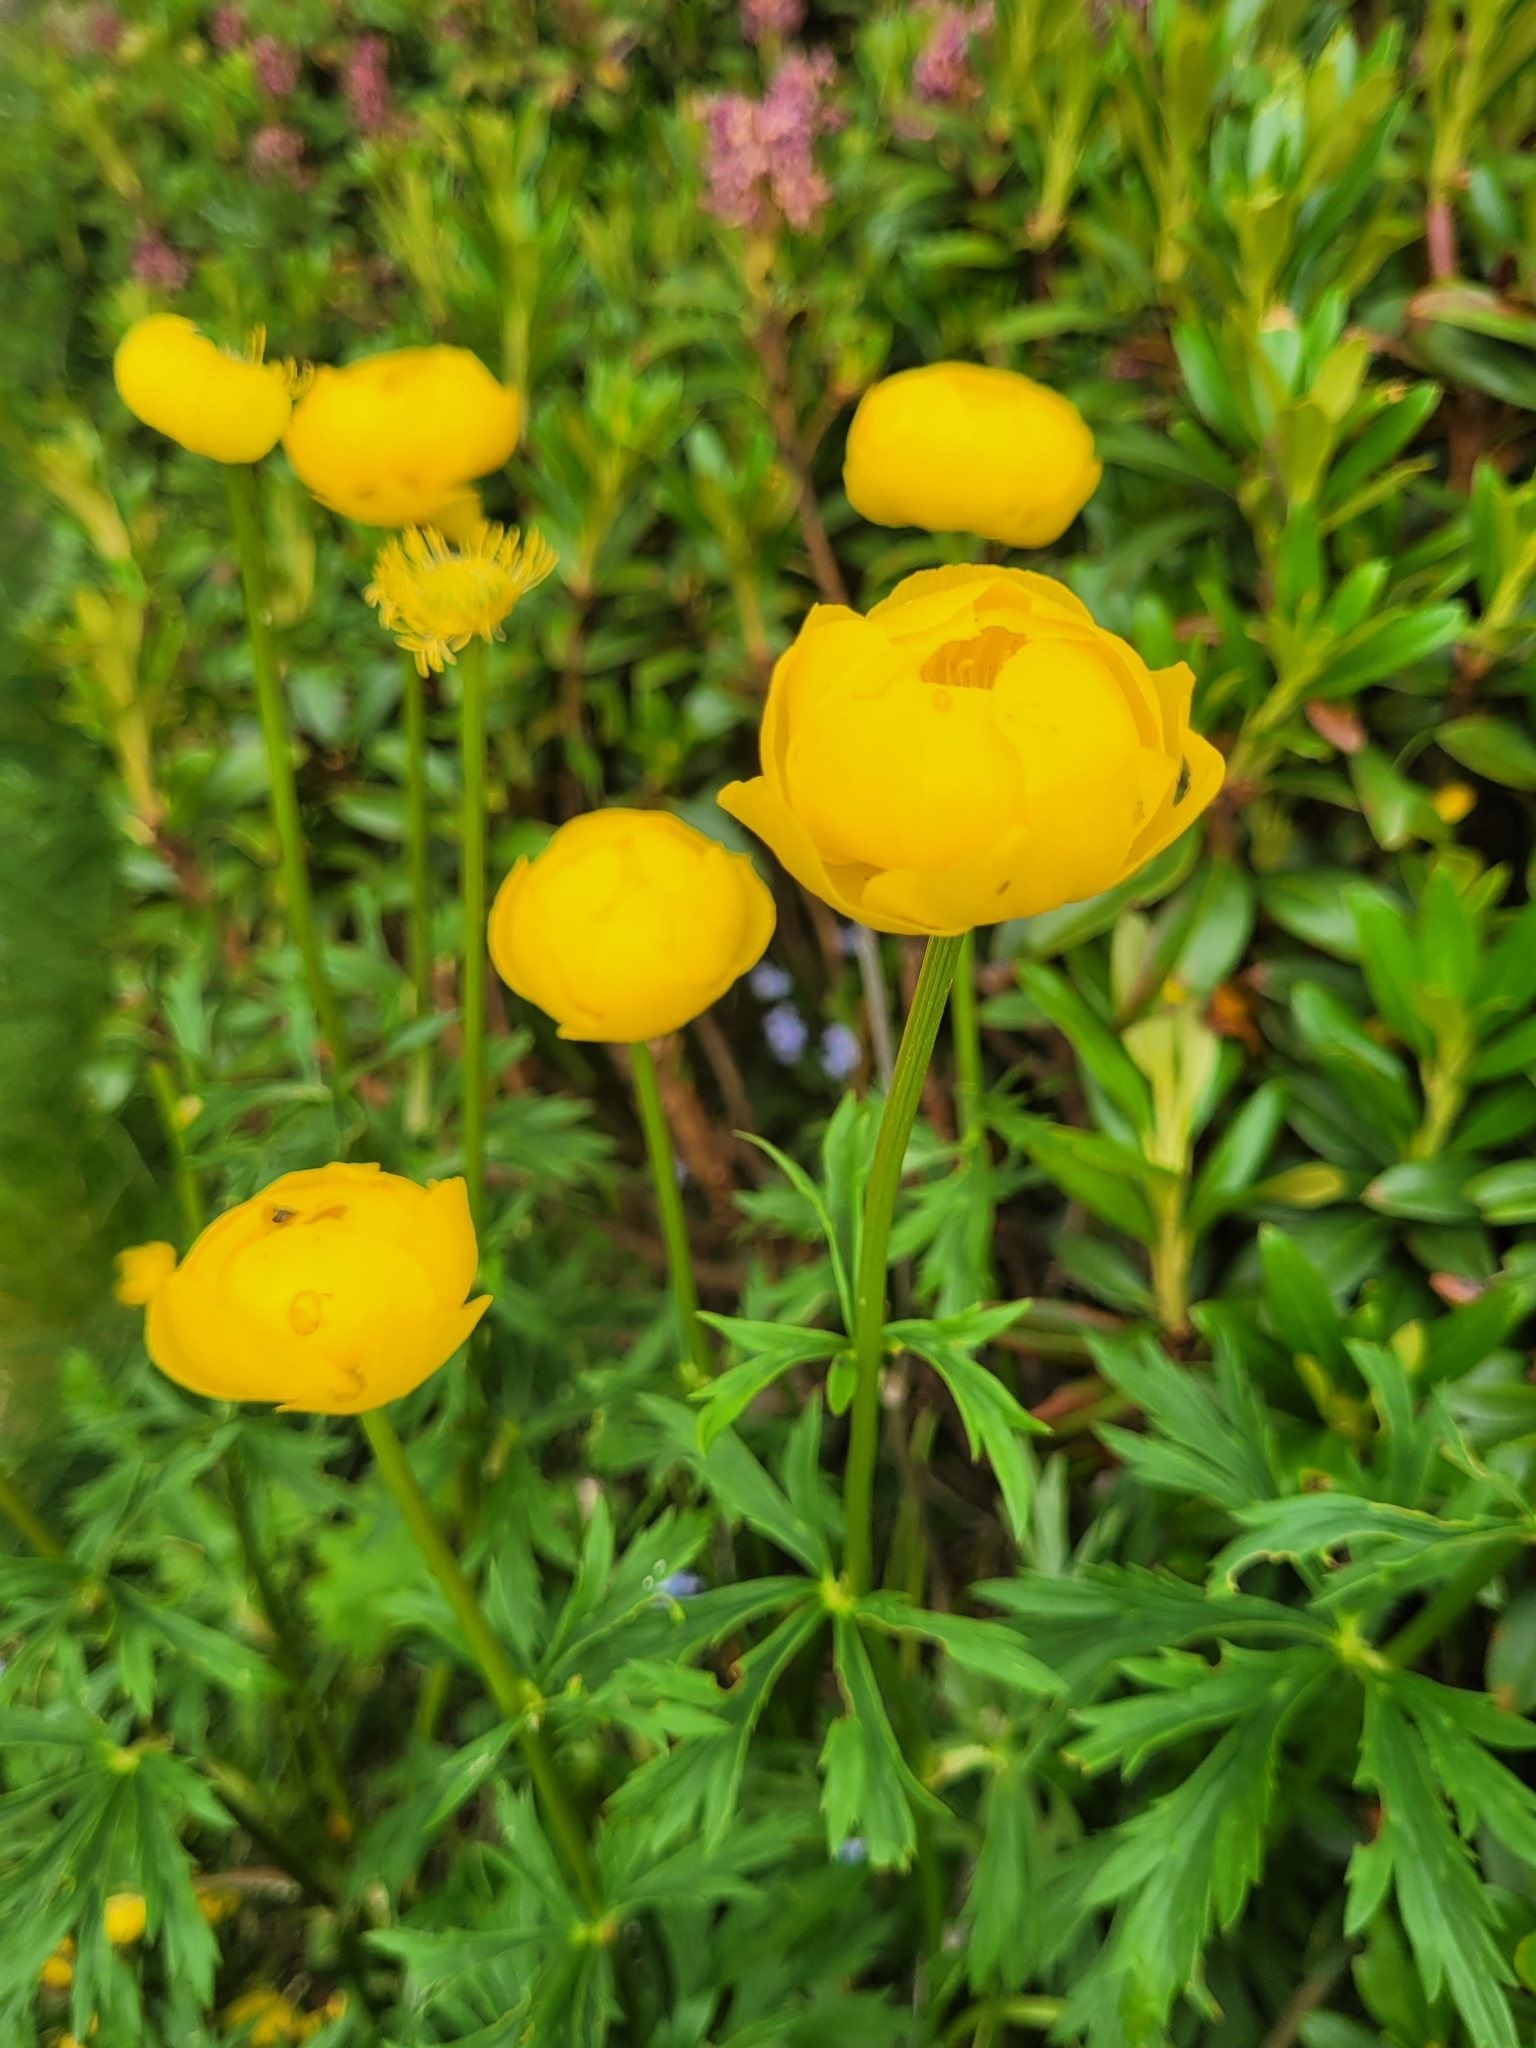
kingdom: Plantae
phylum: Tracheophyta
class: Magnoliopsida
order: Ranunculales
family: Ranunculaceae
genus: Trollius
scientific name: Trollius europaeus
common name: European globeflower
